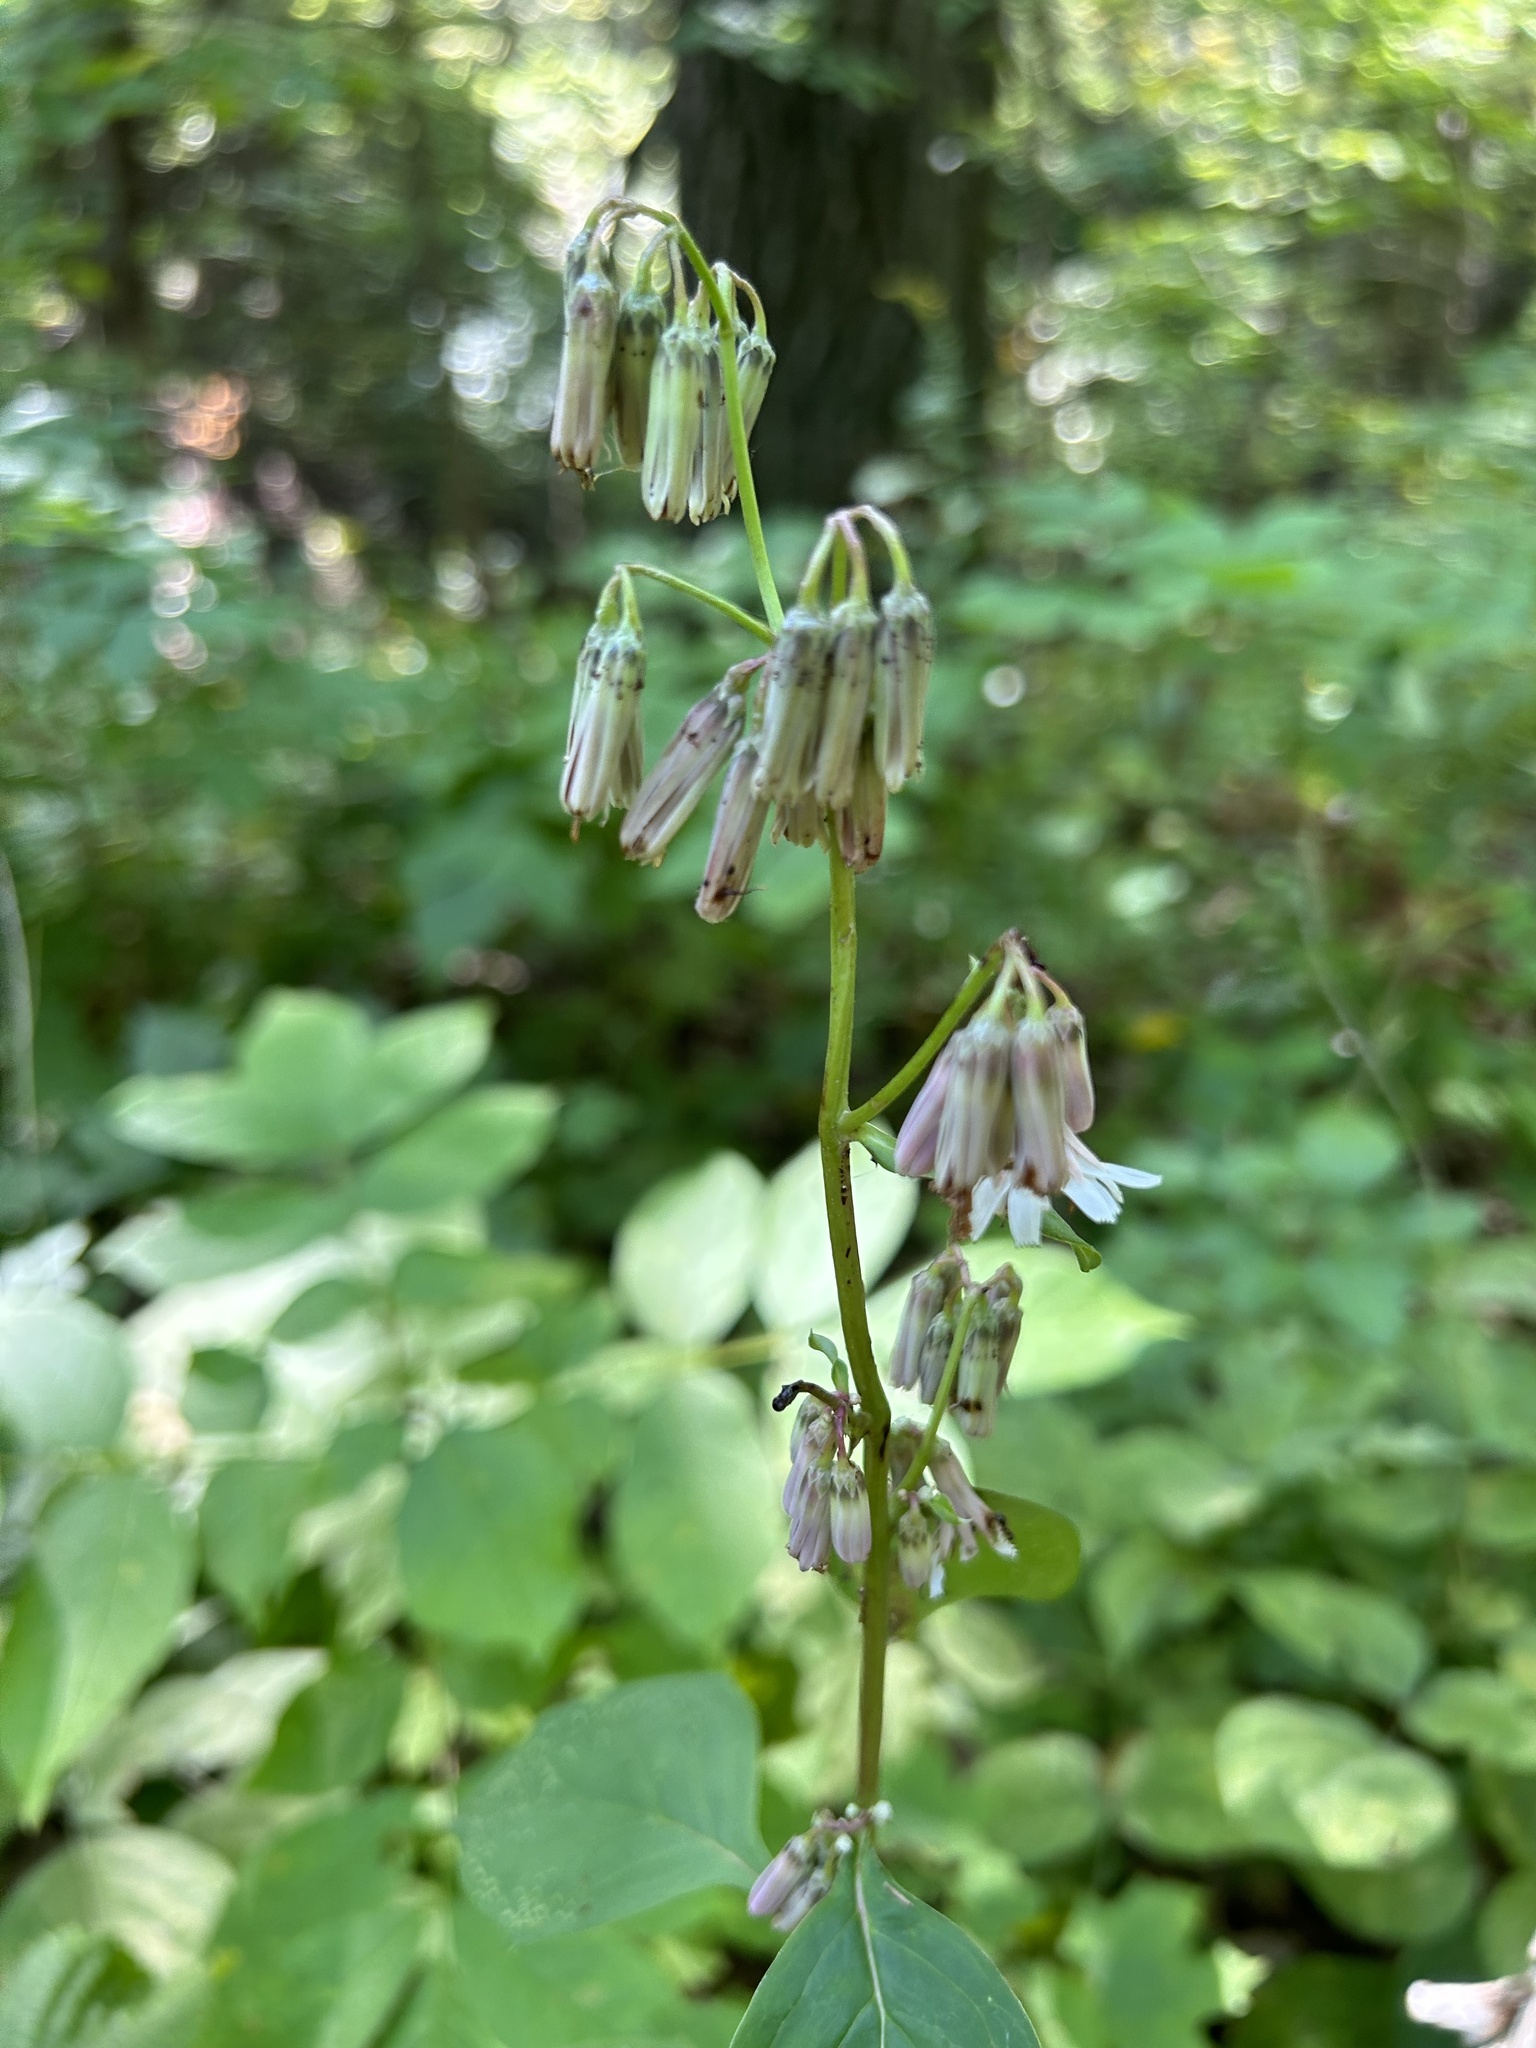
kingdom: Plantae
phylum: Tracheophyta
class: Magnoliopsida
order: Asterales
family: Asteraceae
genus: Nabalus
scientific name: Nabalus albus
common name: White rattlesnakeroot
